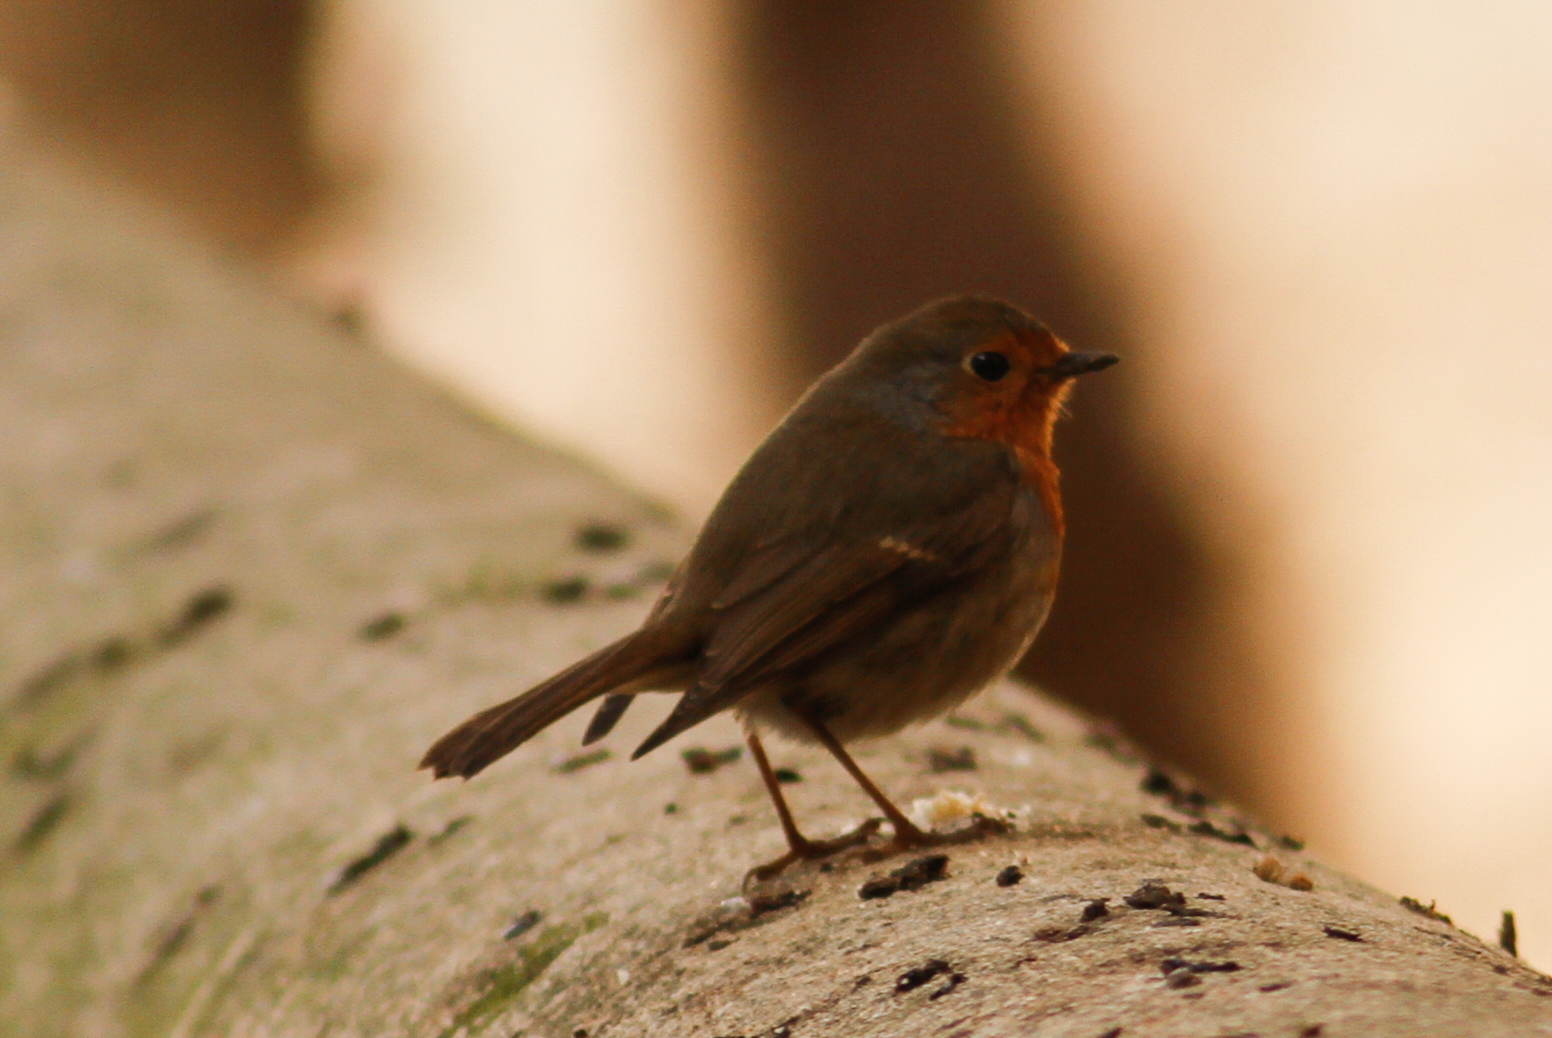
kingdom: Animalia
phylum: Chordata
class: Aves
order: Passeriformes
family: Muscicapidae
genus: Erithacus
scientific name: Erithacus rubecula
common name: European robin
